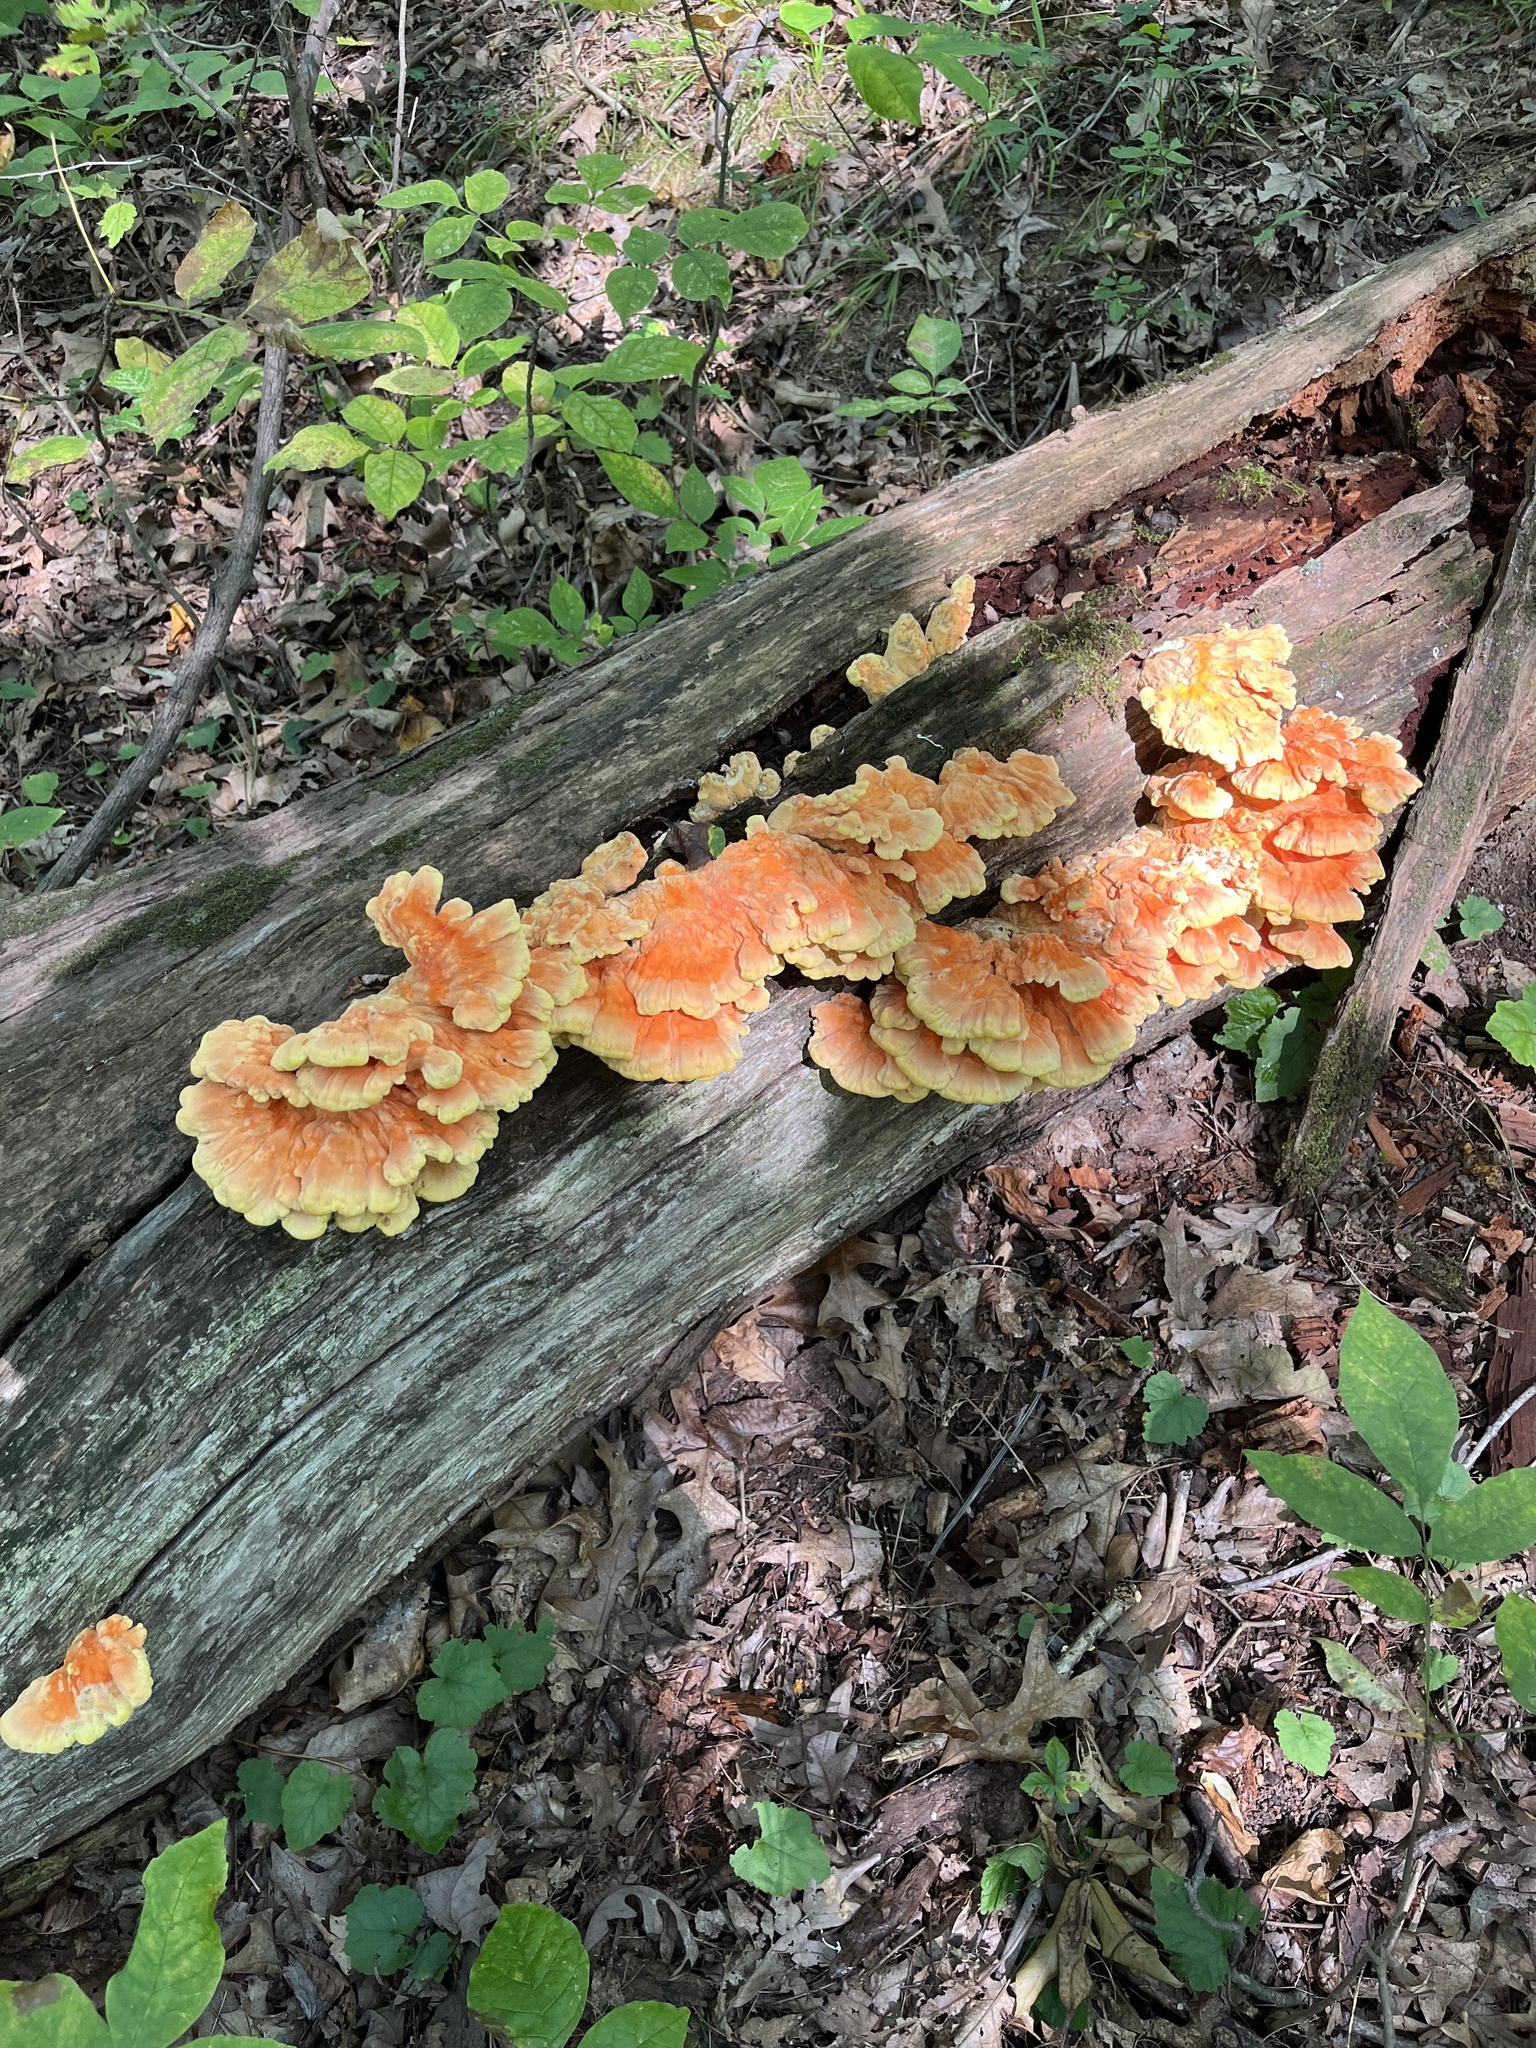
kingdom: Fungi
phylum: Basidiomycota
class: Agaricomycetes
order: Polyporales
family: Laetiporaceae
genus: Laetiporus
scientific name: Laetiporus sulphureus
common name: Chicken of the woods
